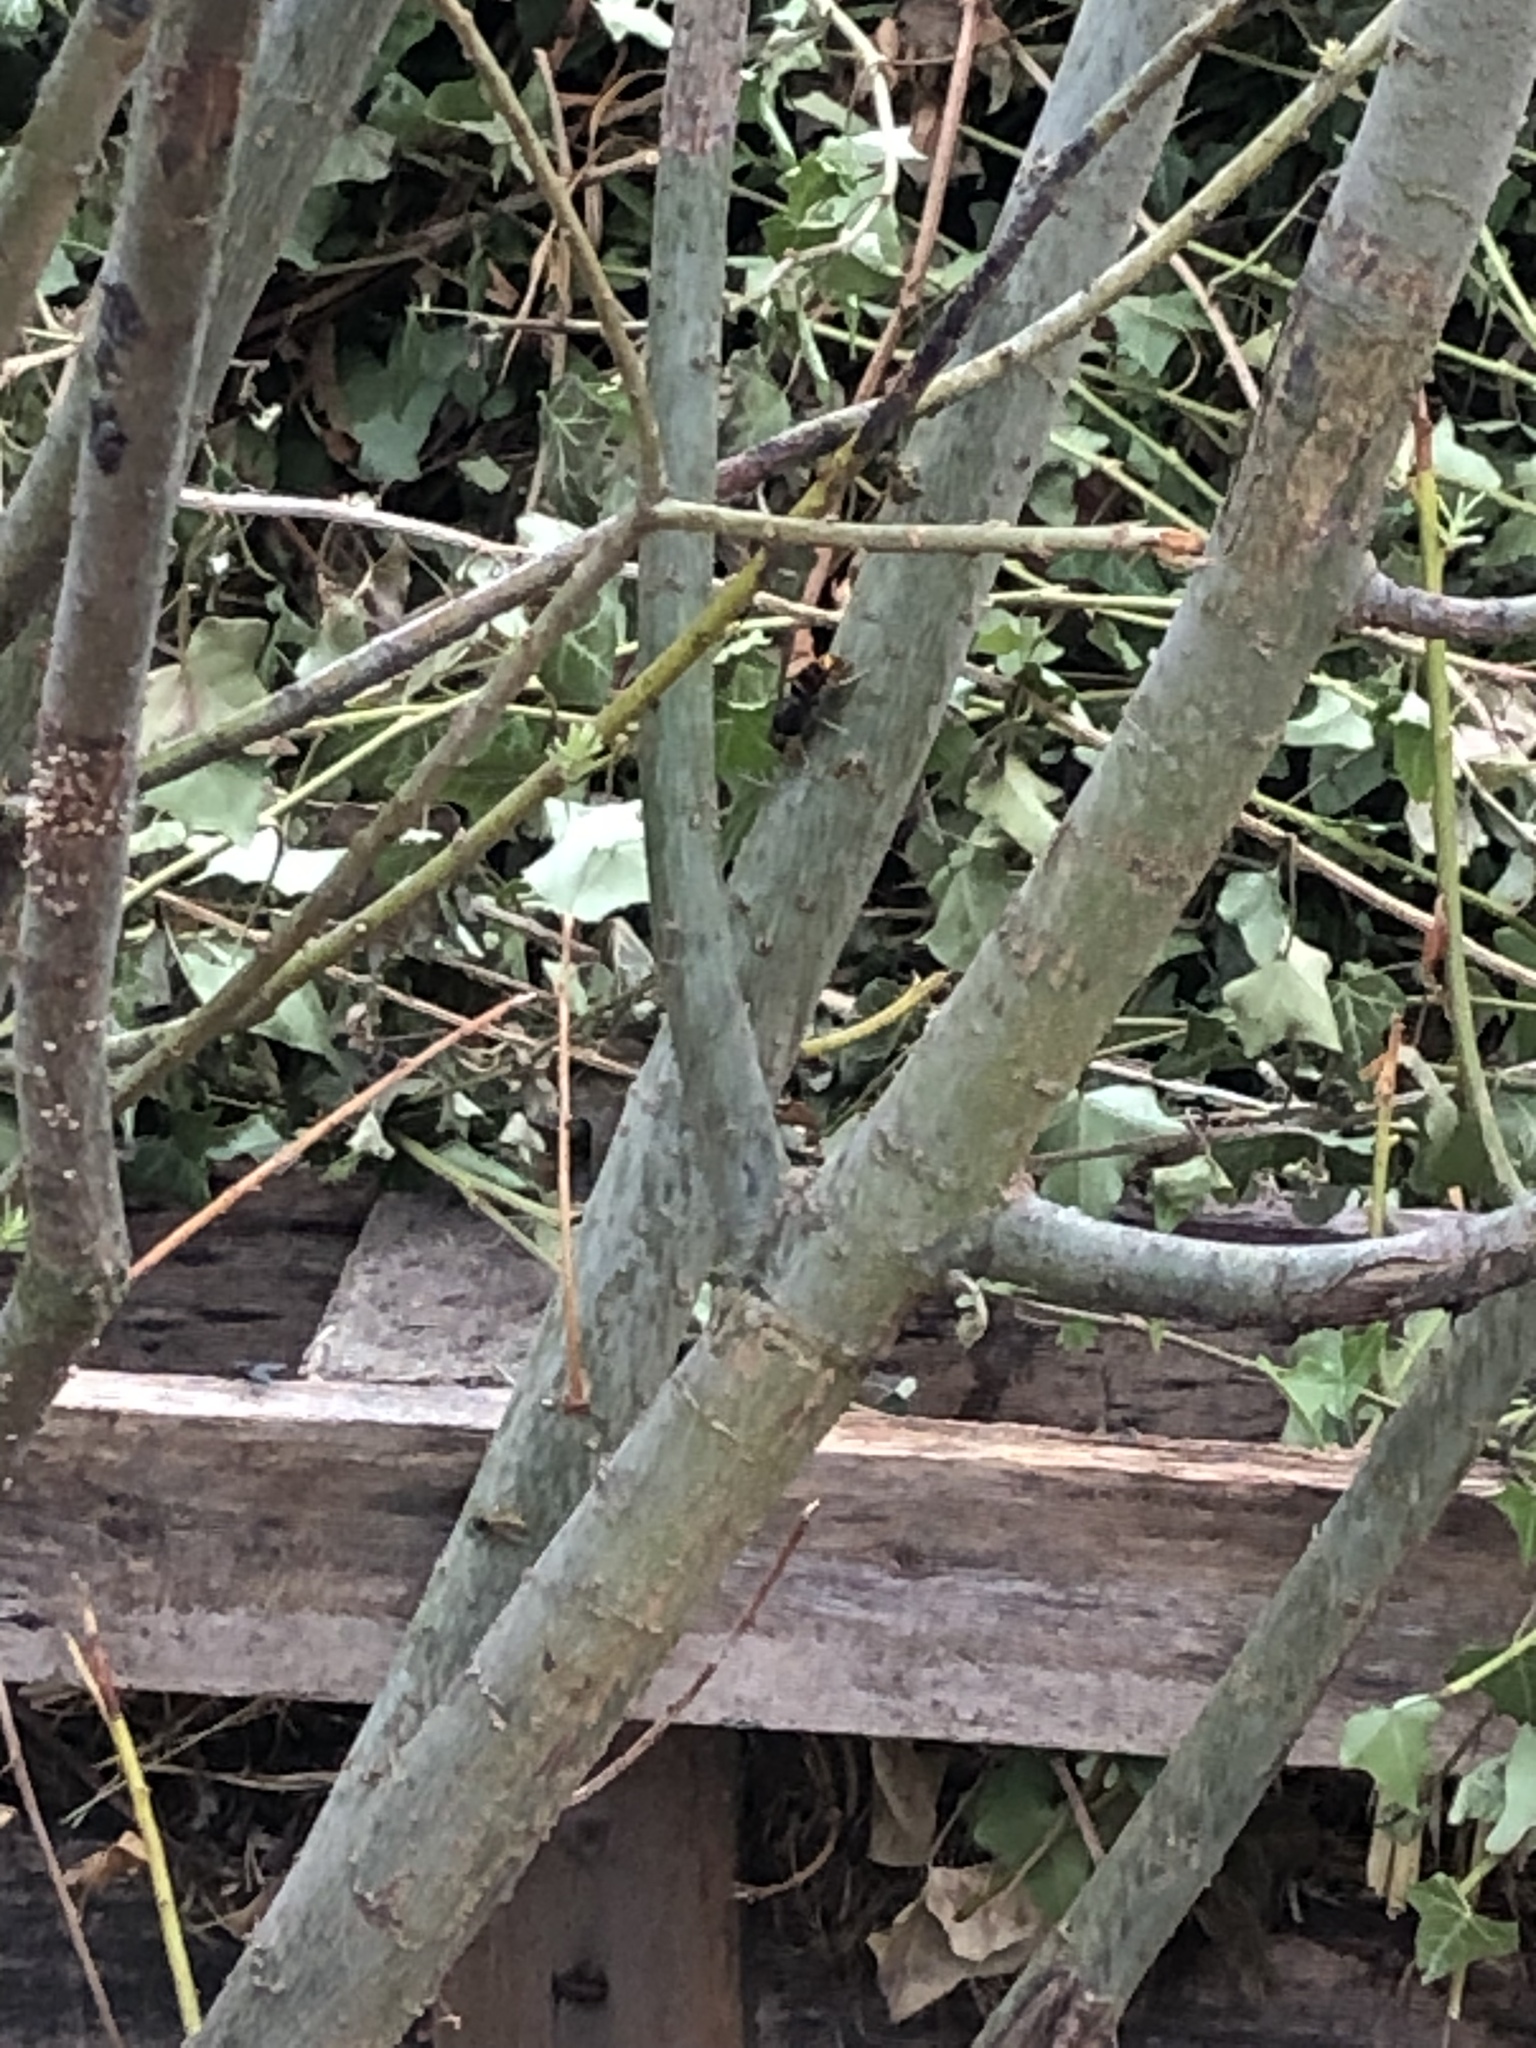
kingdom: Animalia
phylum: Arthropoda
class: Insecta
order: Hymenoptera
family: Vespidae
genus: Vespa
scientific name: Vespa velutina
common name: Asian hornet
